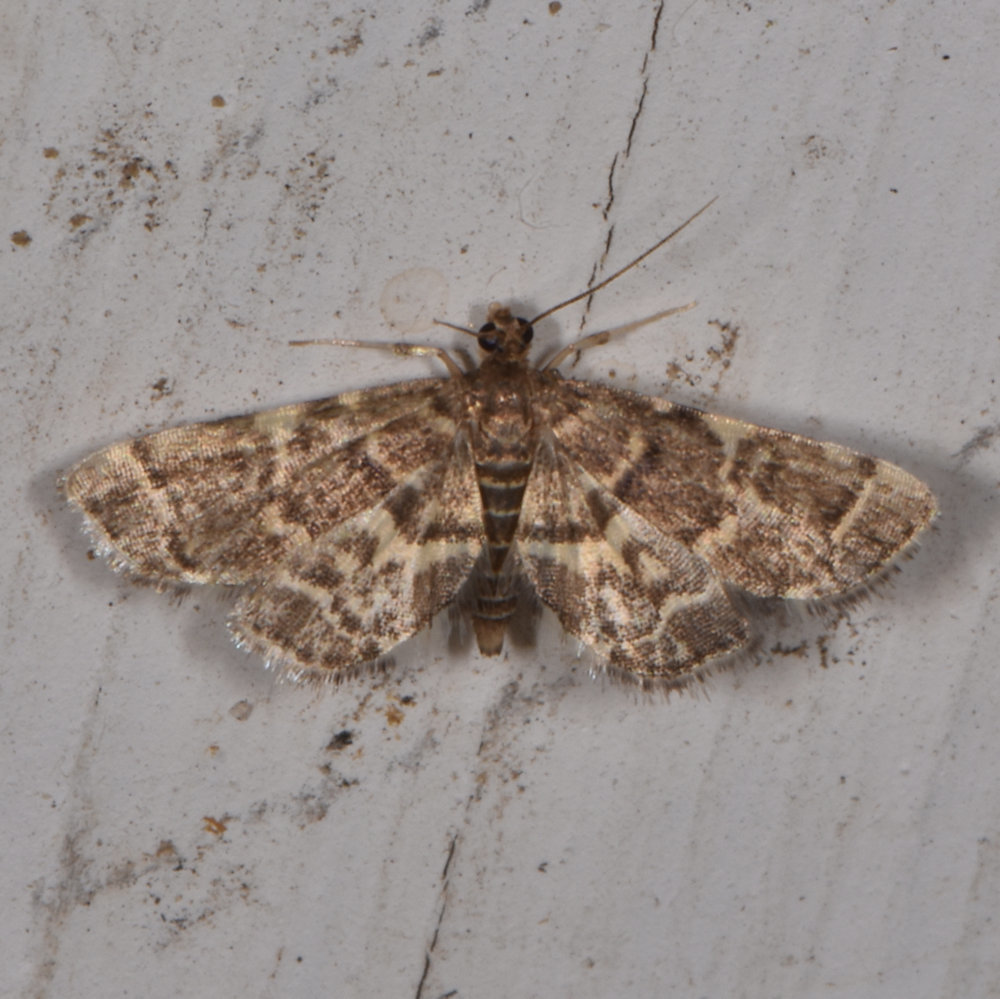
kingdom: Animalia
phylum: Arthropoda
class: Insecta
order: Lepidoptera
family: Crambidae
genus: Anageshna
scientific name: Anageshna primordialis
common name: Yellow-spotted webworm moth
